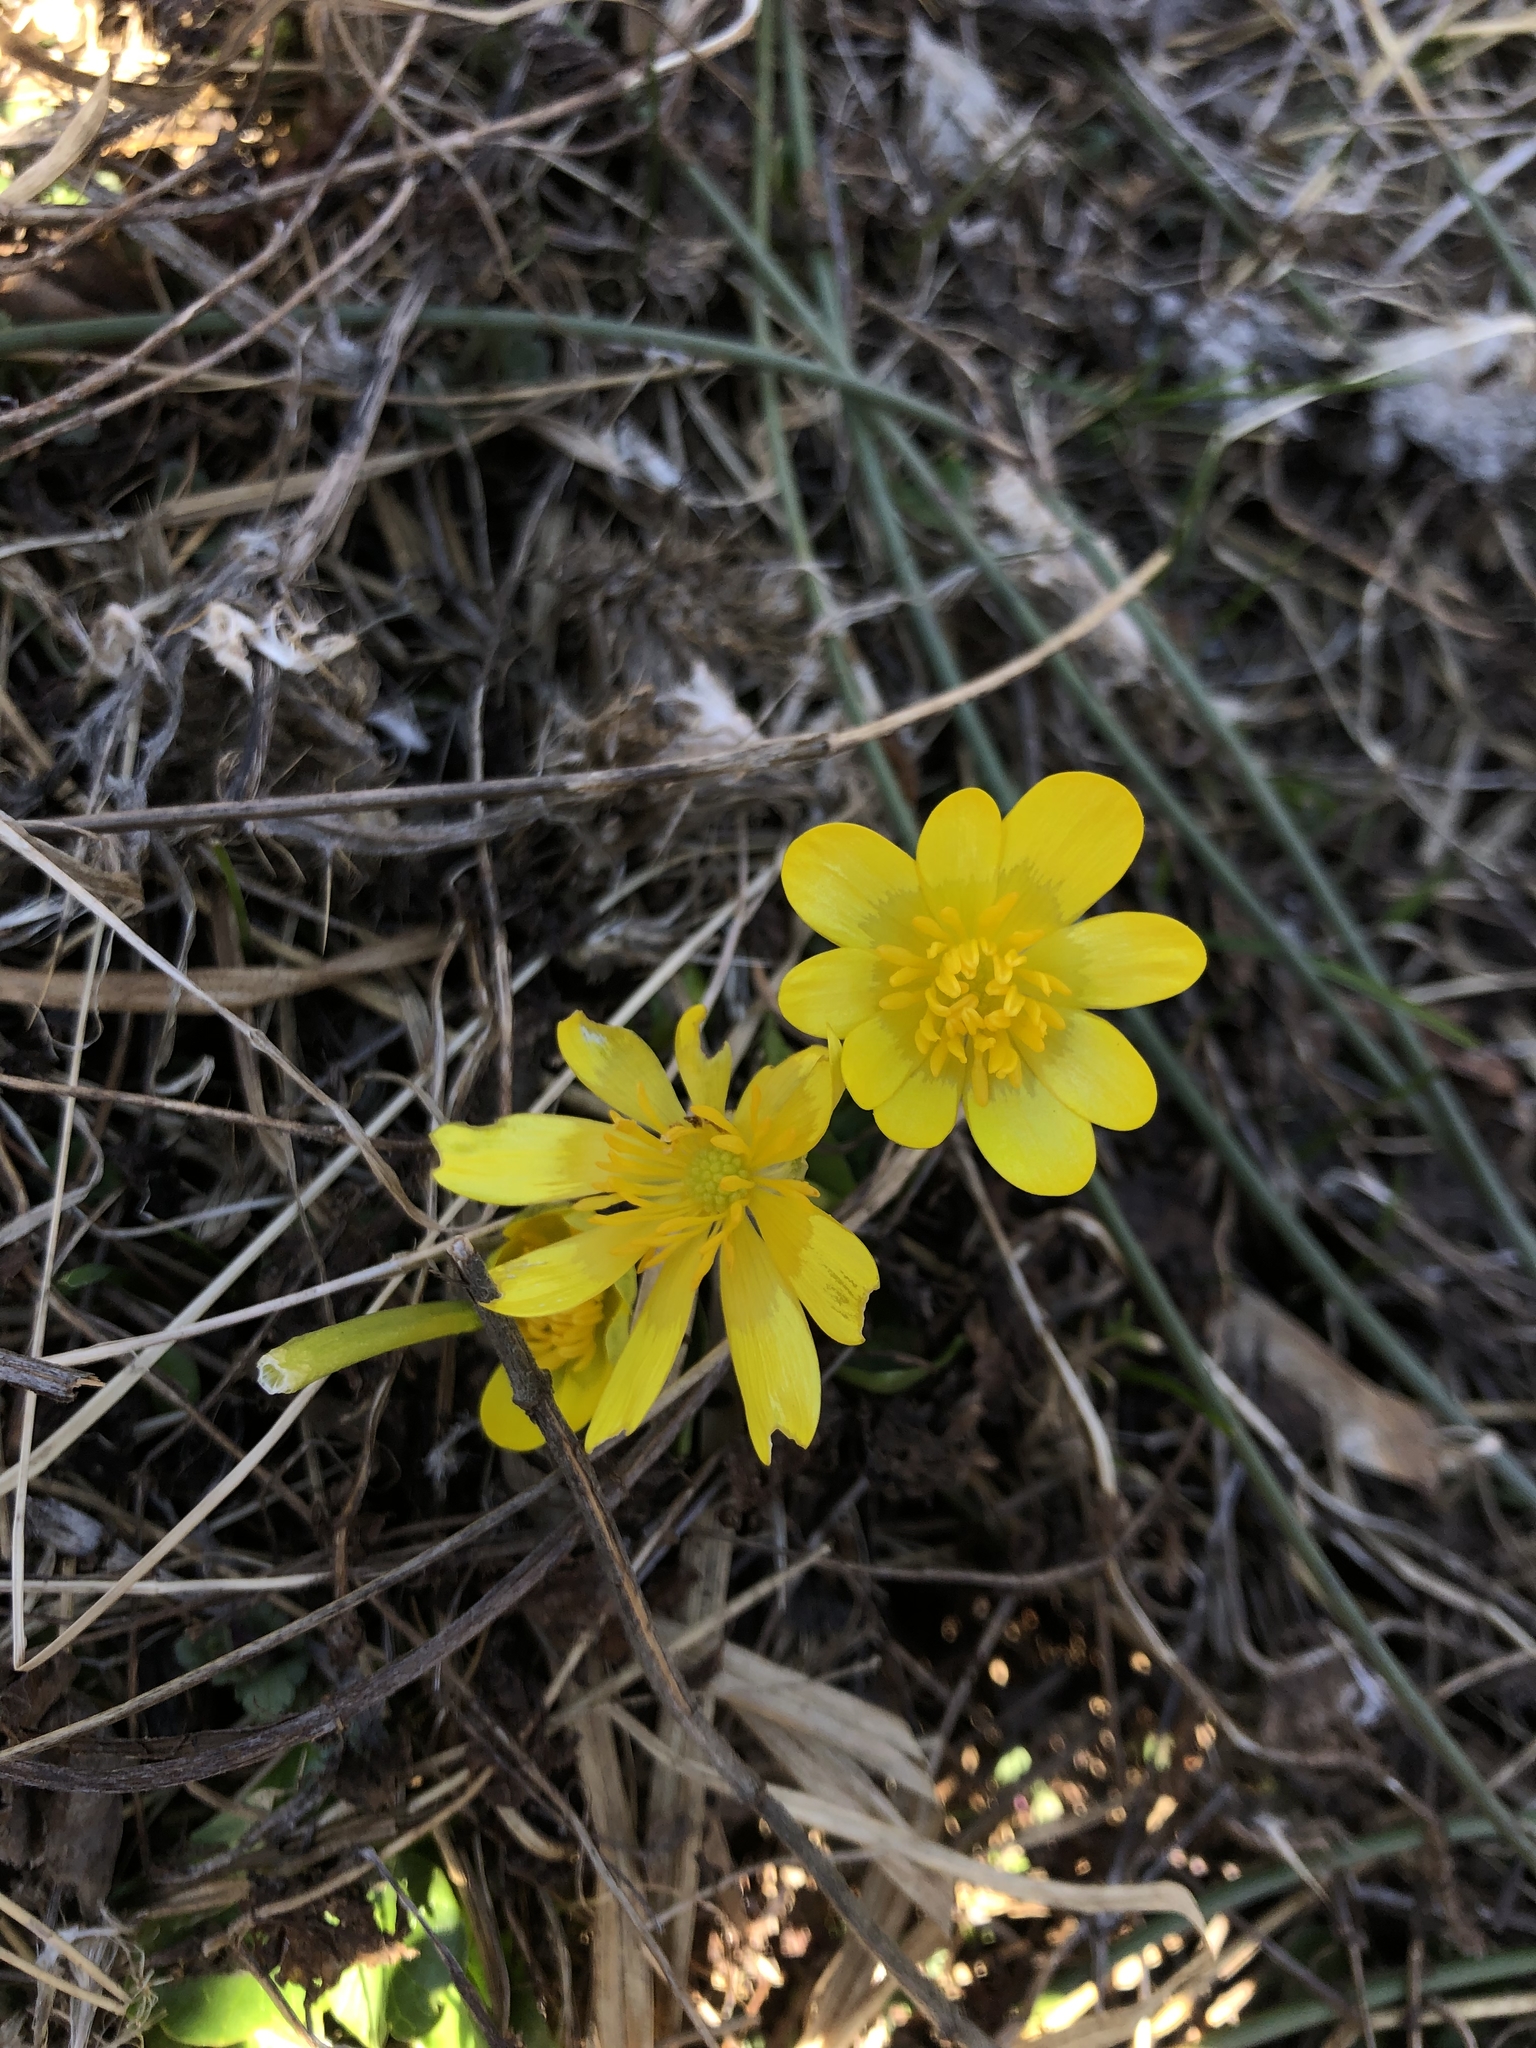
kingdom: Plantae
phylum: Tracheophyta
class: Magnoliopsida
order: Ranunculales
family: Ranunculaceae
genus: Ficaria
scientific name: Ficaria verna
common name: Lesser celandine
